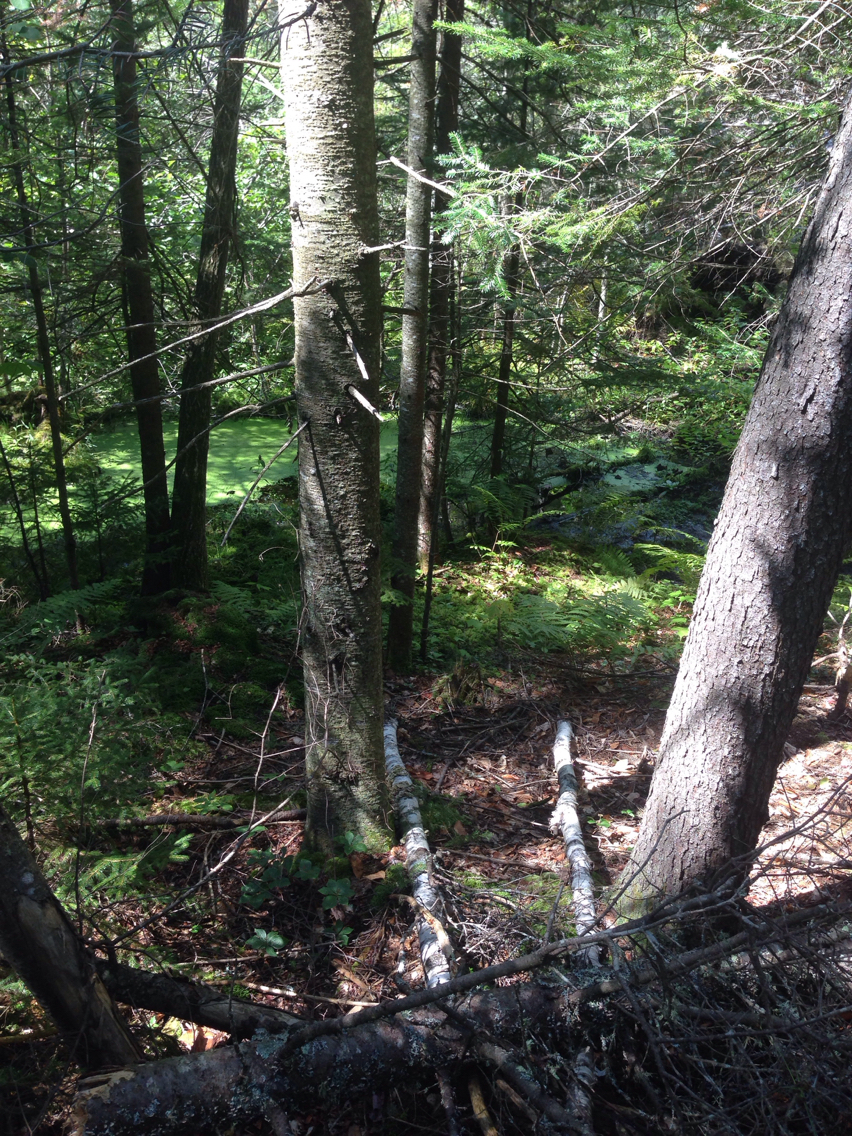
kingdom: Plantae
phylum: Tracheophyta
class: Pinopsida
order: Pinales
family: Pinaceae
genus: Abies
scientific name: Abies balsamea
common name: Balsam fir
